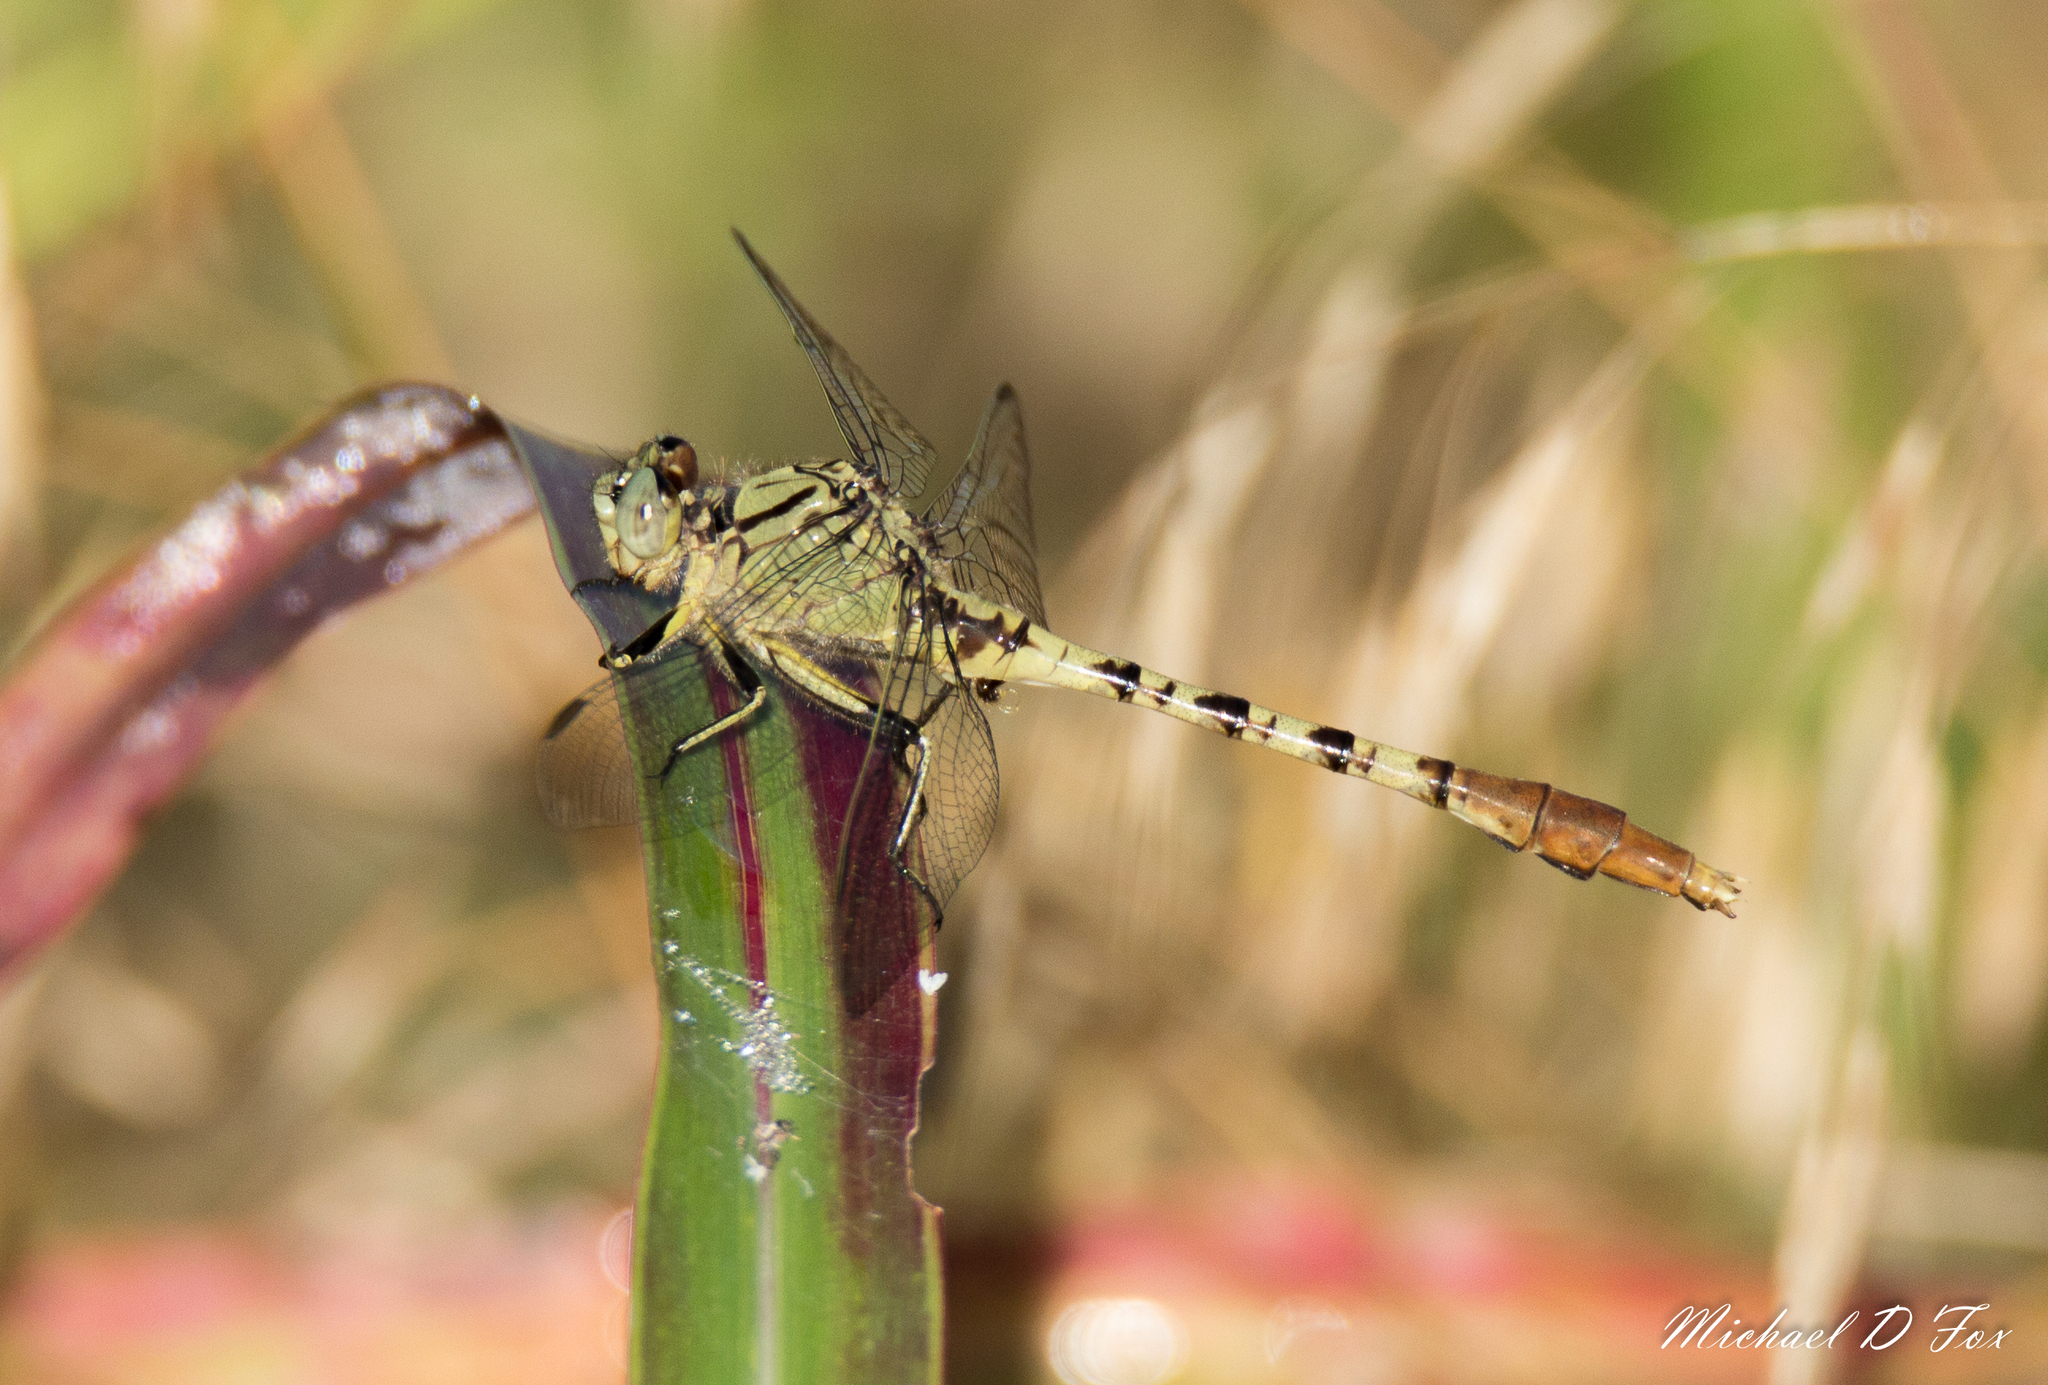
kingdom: Animalia
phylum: Arthropoda
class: Insecta
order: Odonata
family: Gomphidae
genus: Arigomphus
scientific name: Arigomphus submedianus
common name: Jade clubtail
